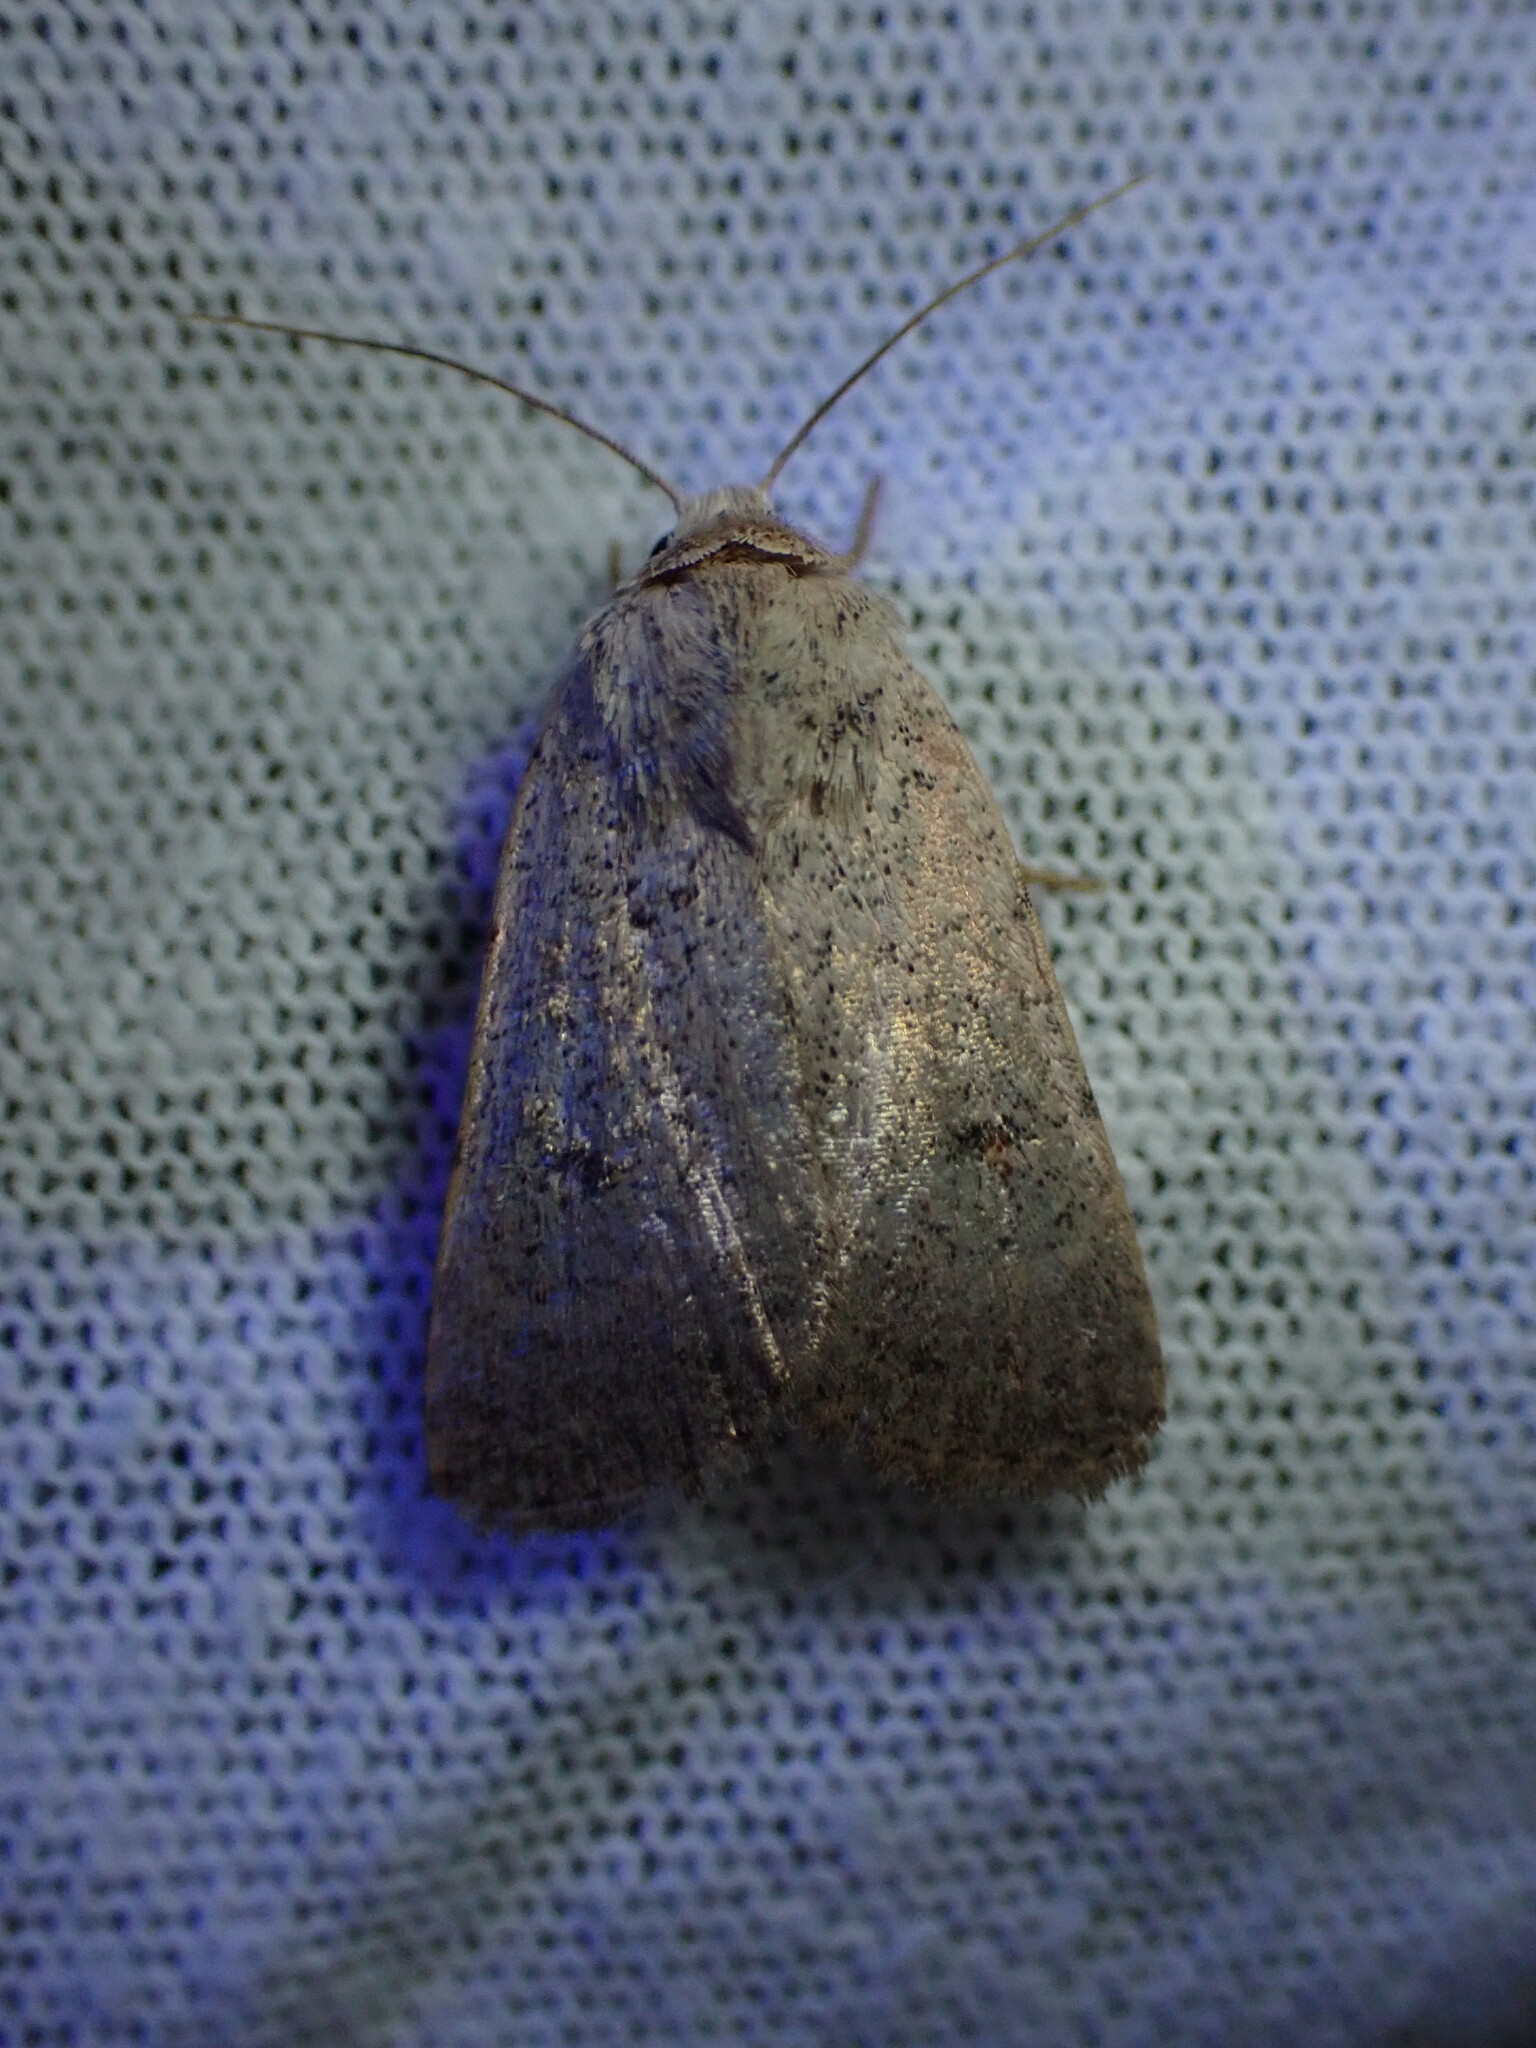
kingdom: Animalia
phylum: Arthropoda
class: Insecta
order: Lepidoptera
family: Noctuidae
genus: Caradrina
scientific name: Caradrina aspersa
